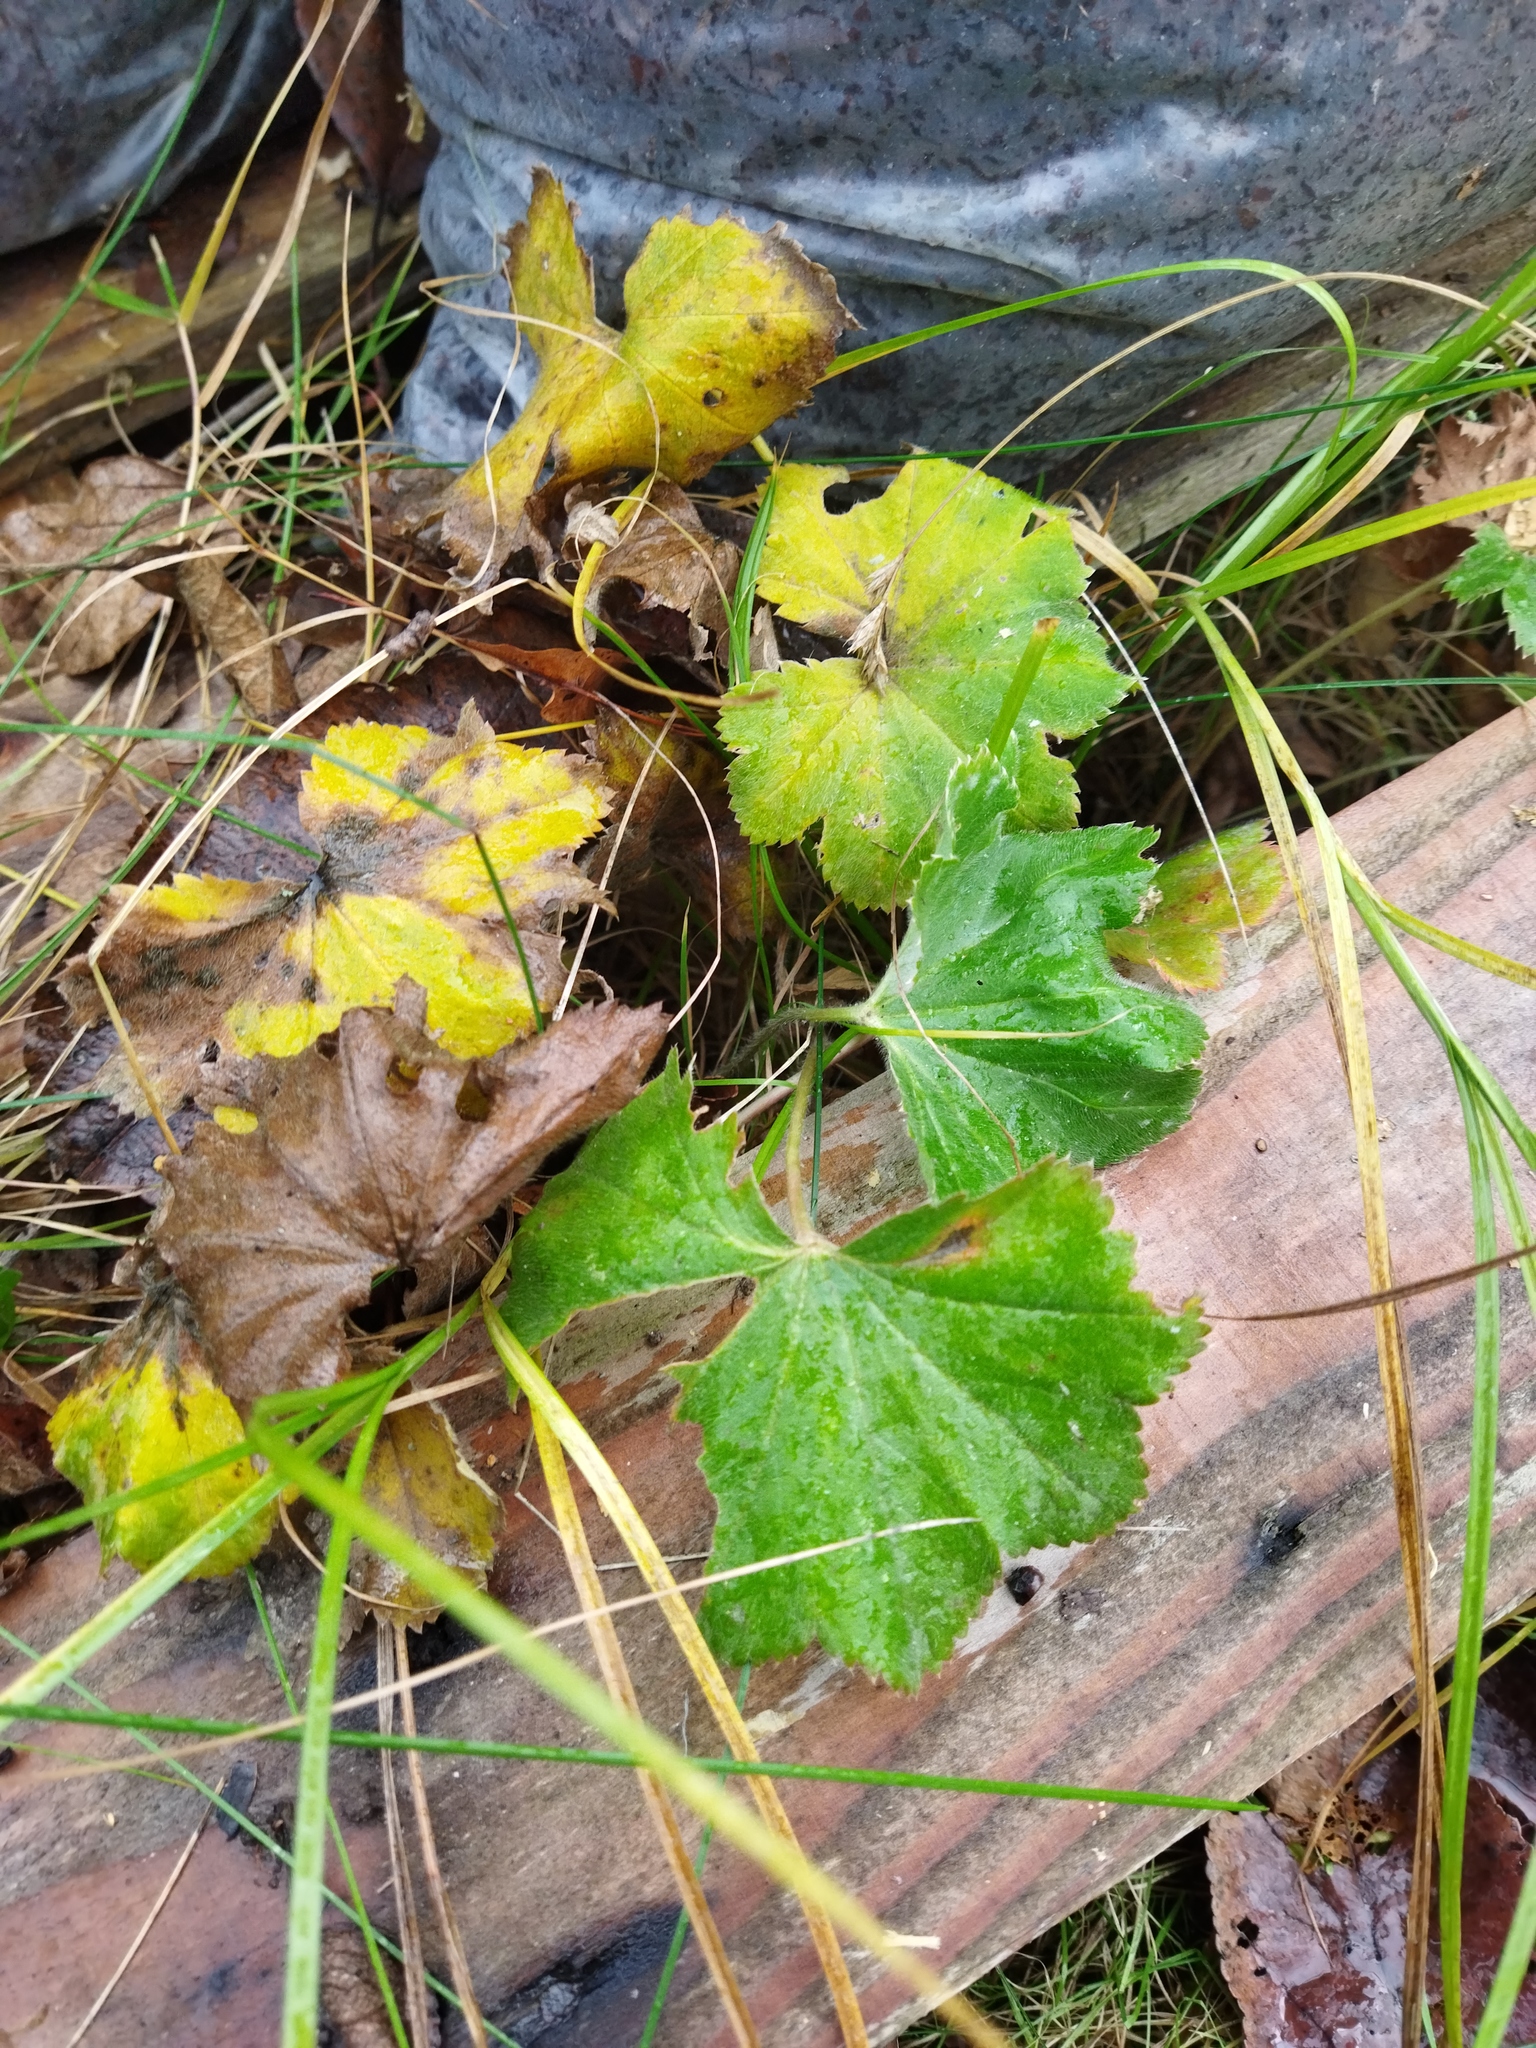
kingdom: Plantae
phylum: Tracheophyta
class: Magnoliopsida
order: Rosales
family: Rosaceae
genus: Alchemilla
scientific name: Alchemilla
